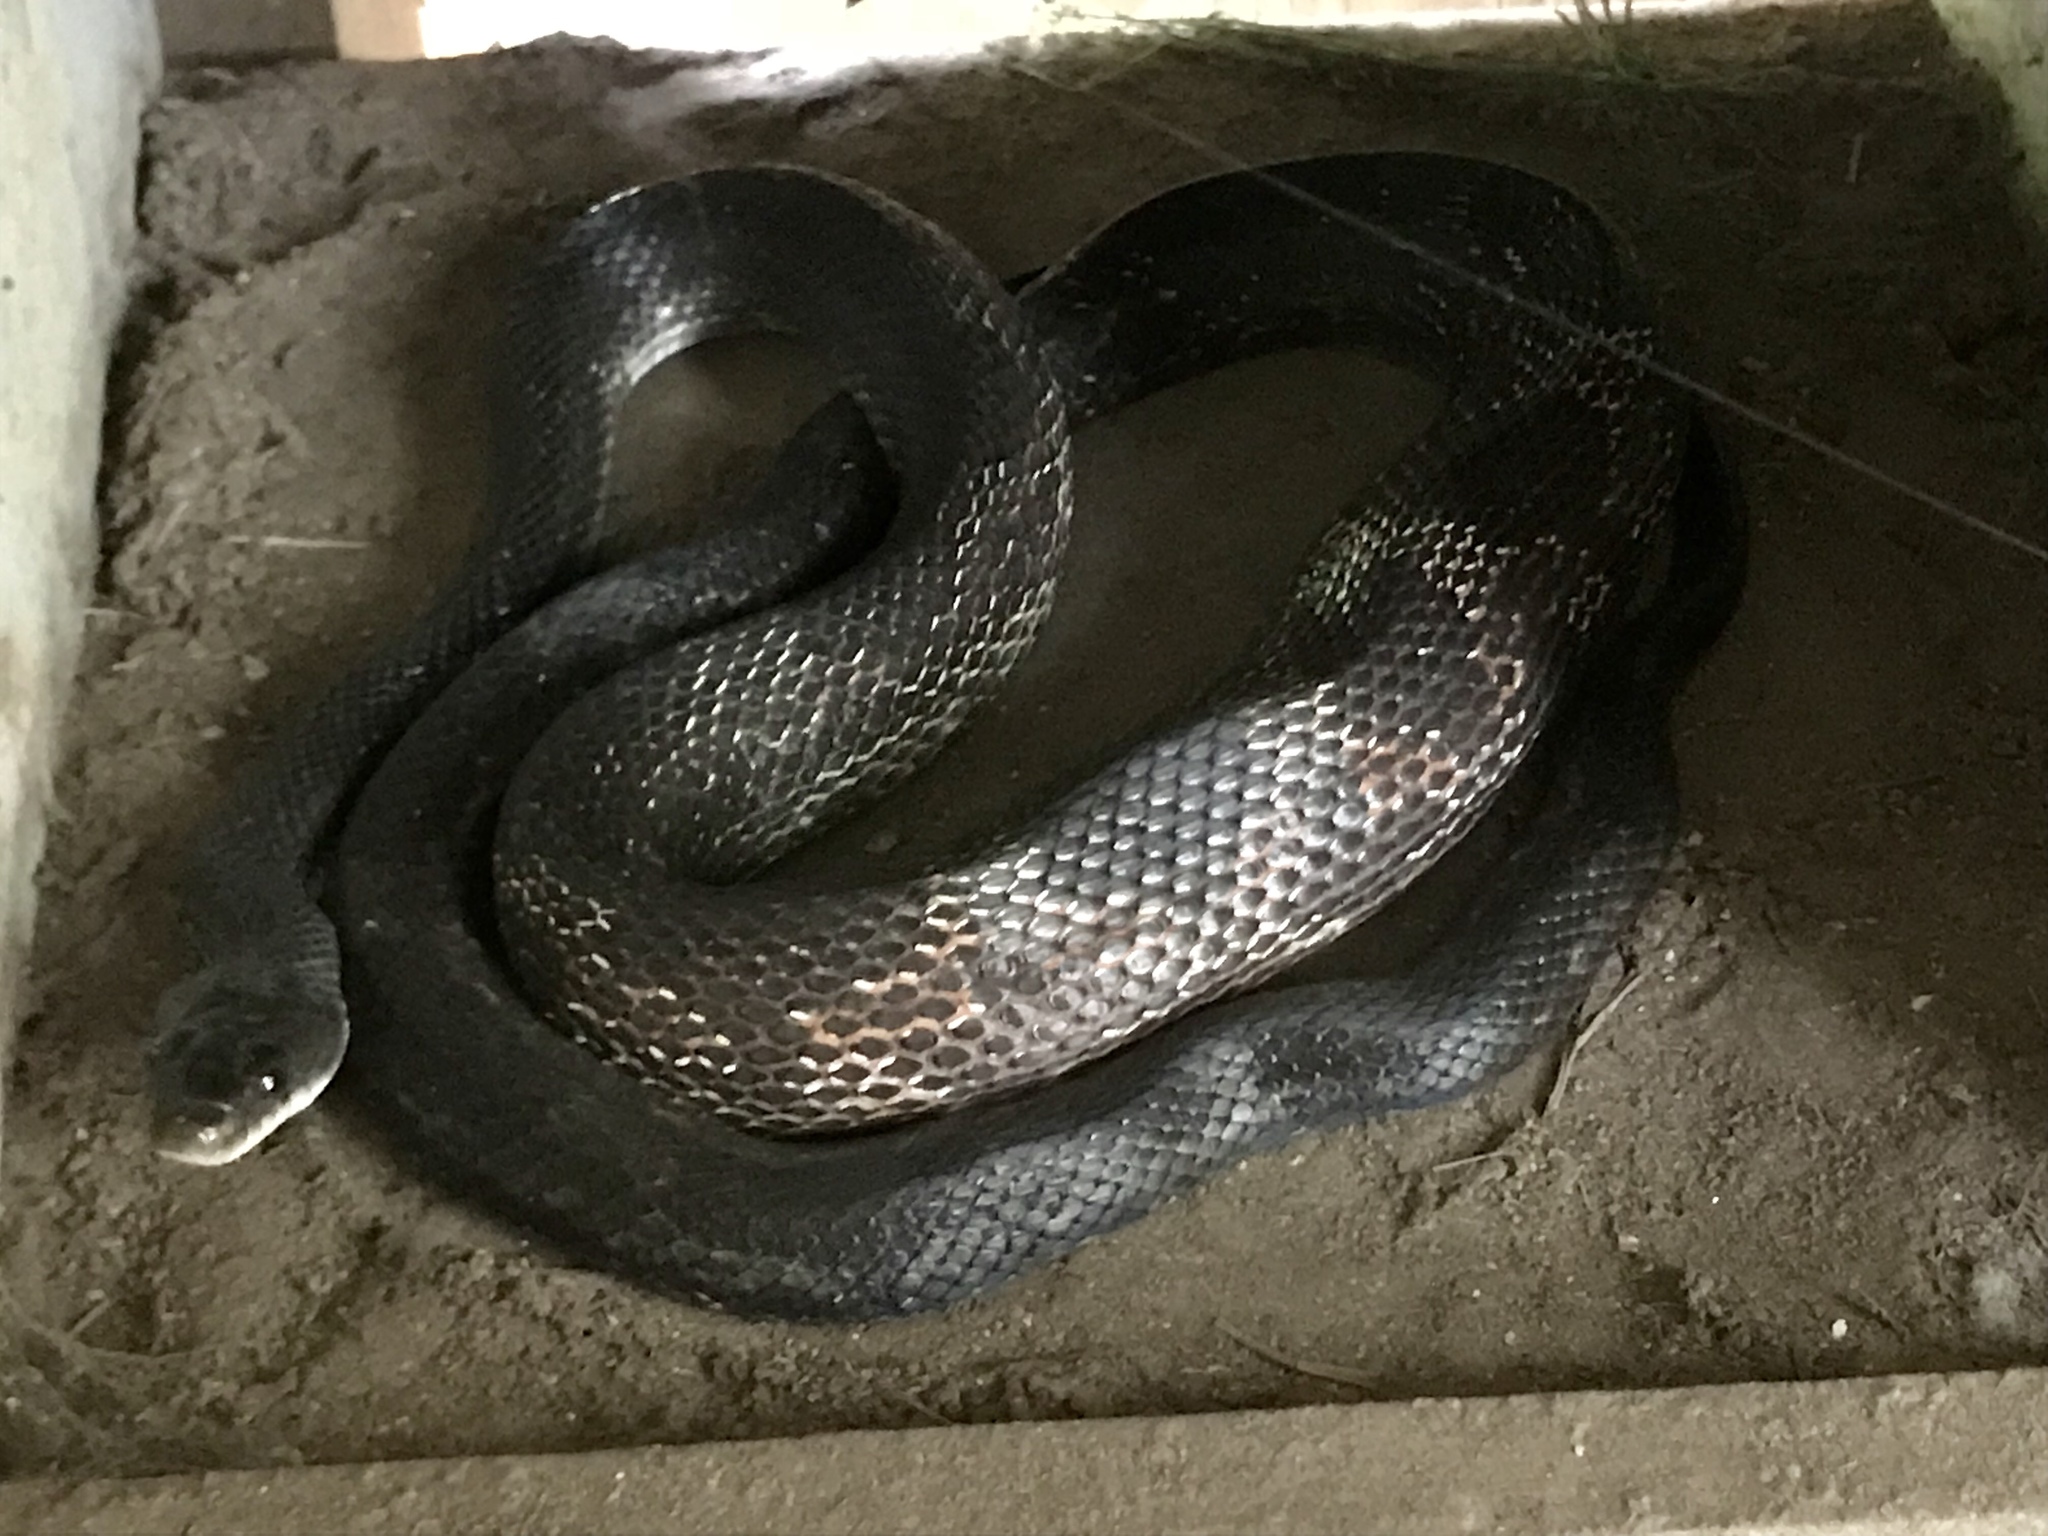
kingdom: Animalia
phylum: Chordata
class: Squamata
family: Colubridae
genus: Pantherophis
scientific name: Pantherophis obsoletus
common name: Black rat snake
